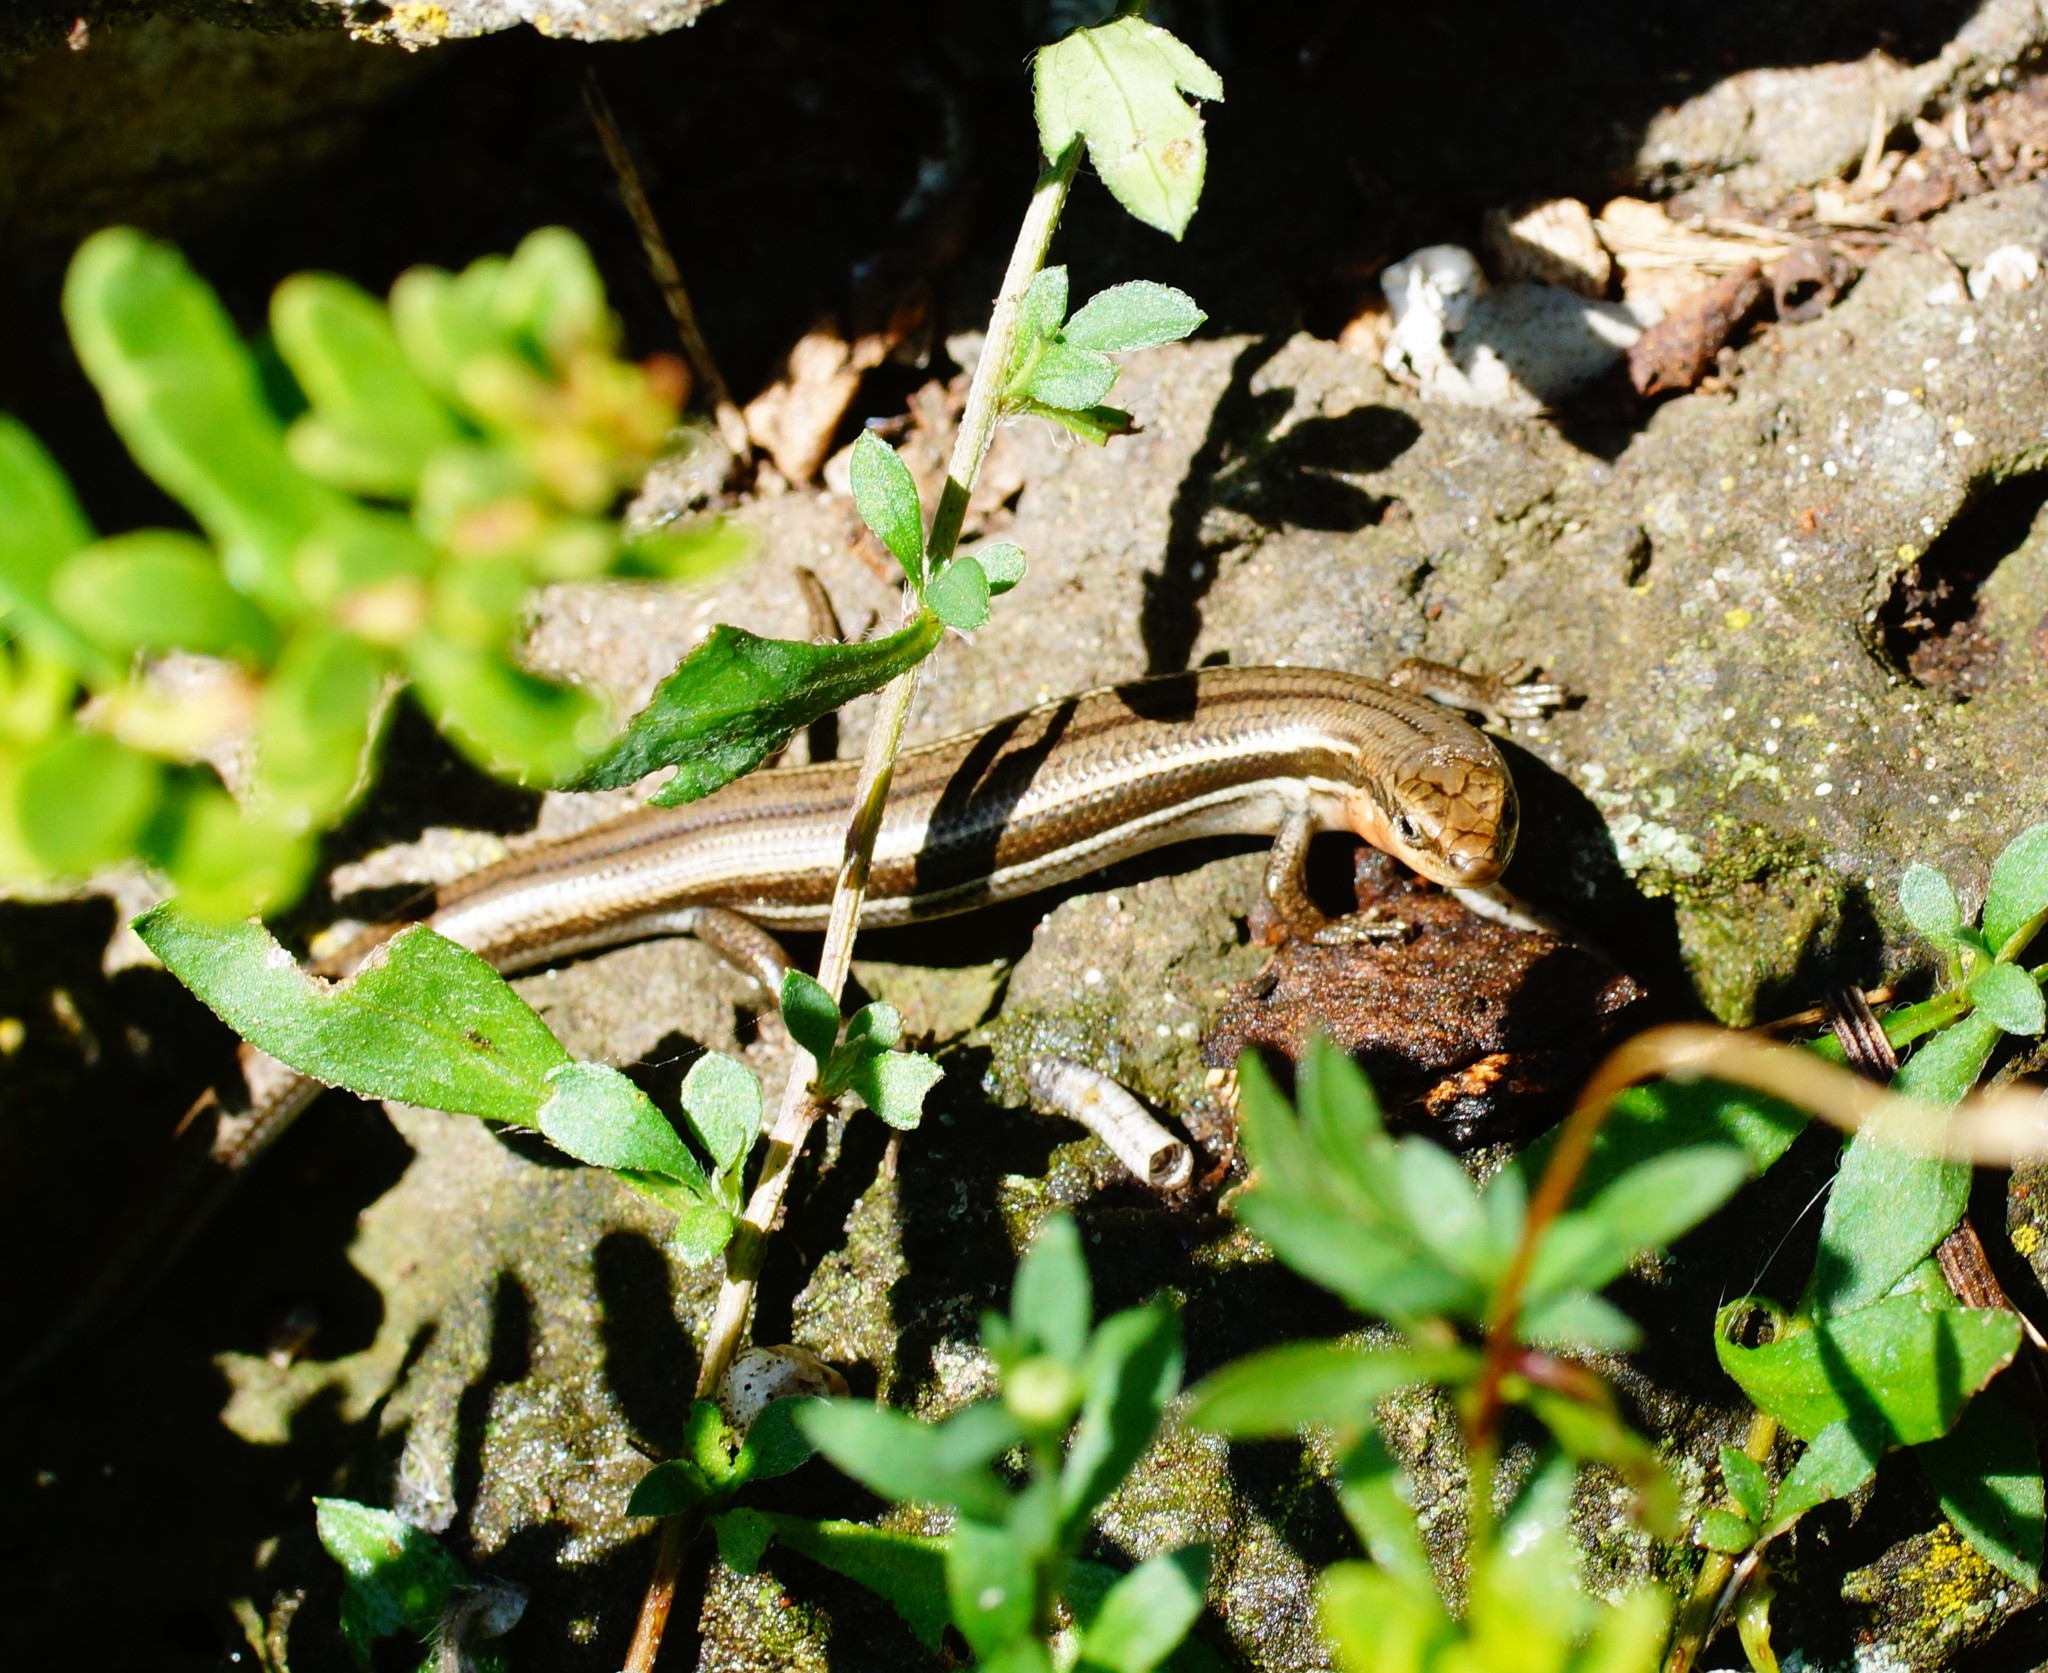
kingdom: Animalia
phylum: Chordata
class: Squamata
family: Scincidae
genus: Acritoscincus
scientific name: Acritoscincus duperreyi
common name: Bold-striped cool-skink
